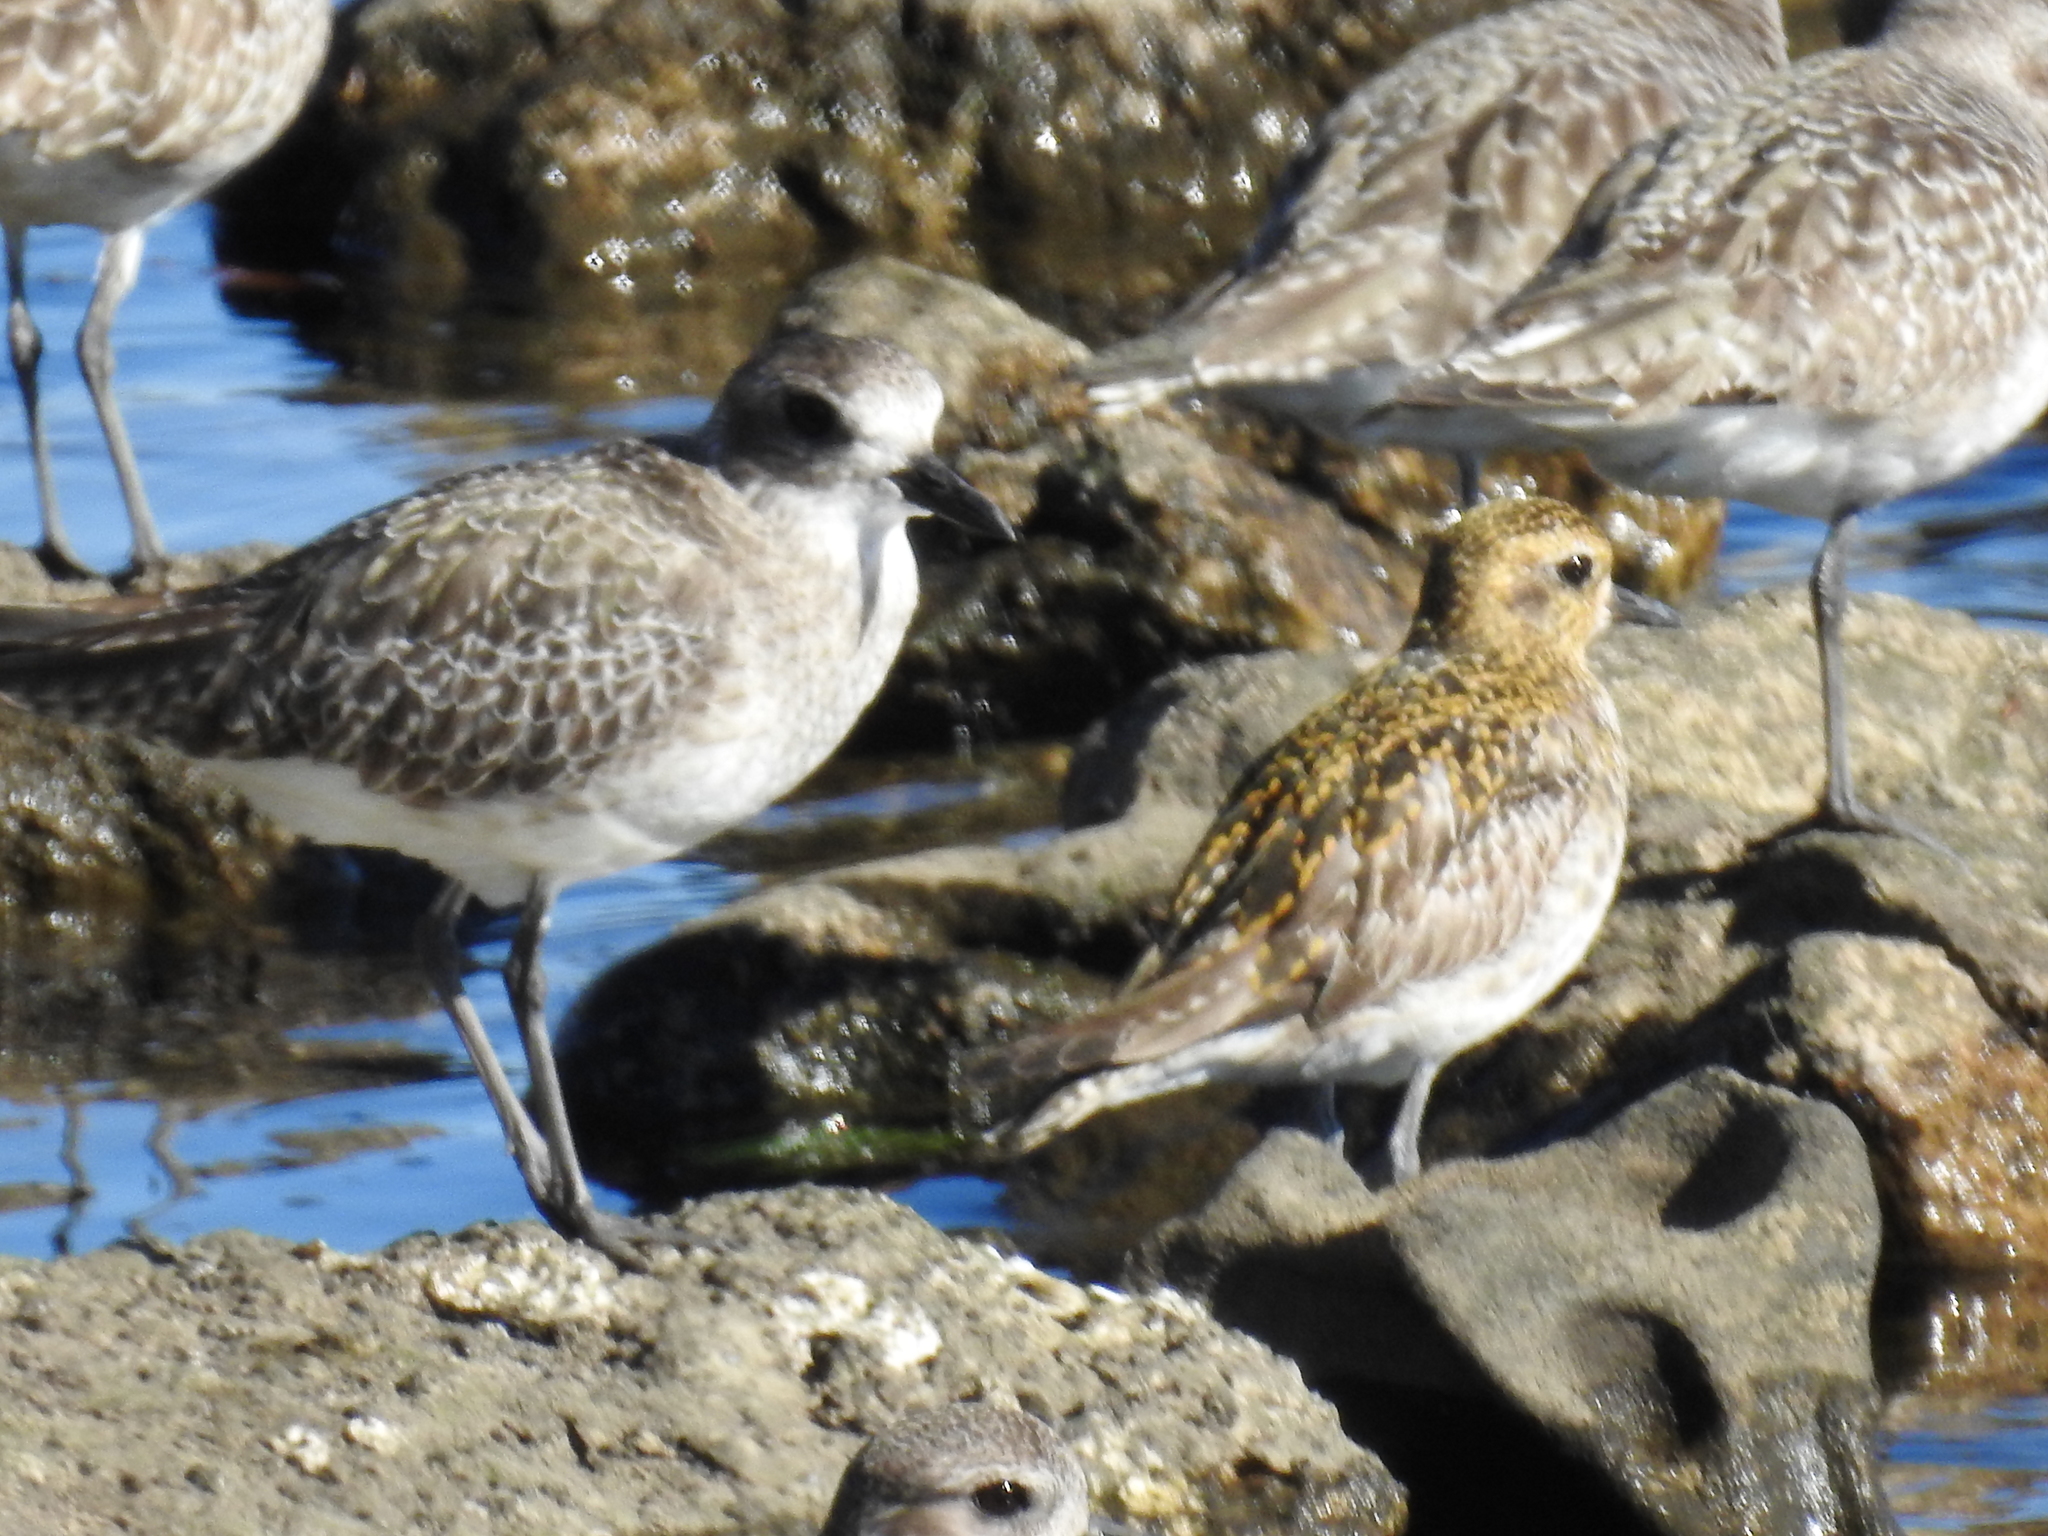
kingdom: Animalia
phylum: Chordata
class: Aves
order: Charadriiformes
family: Charadriidae
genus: Pluvialis
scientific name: Pluvialis fulva
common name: Pacific golden plover
